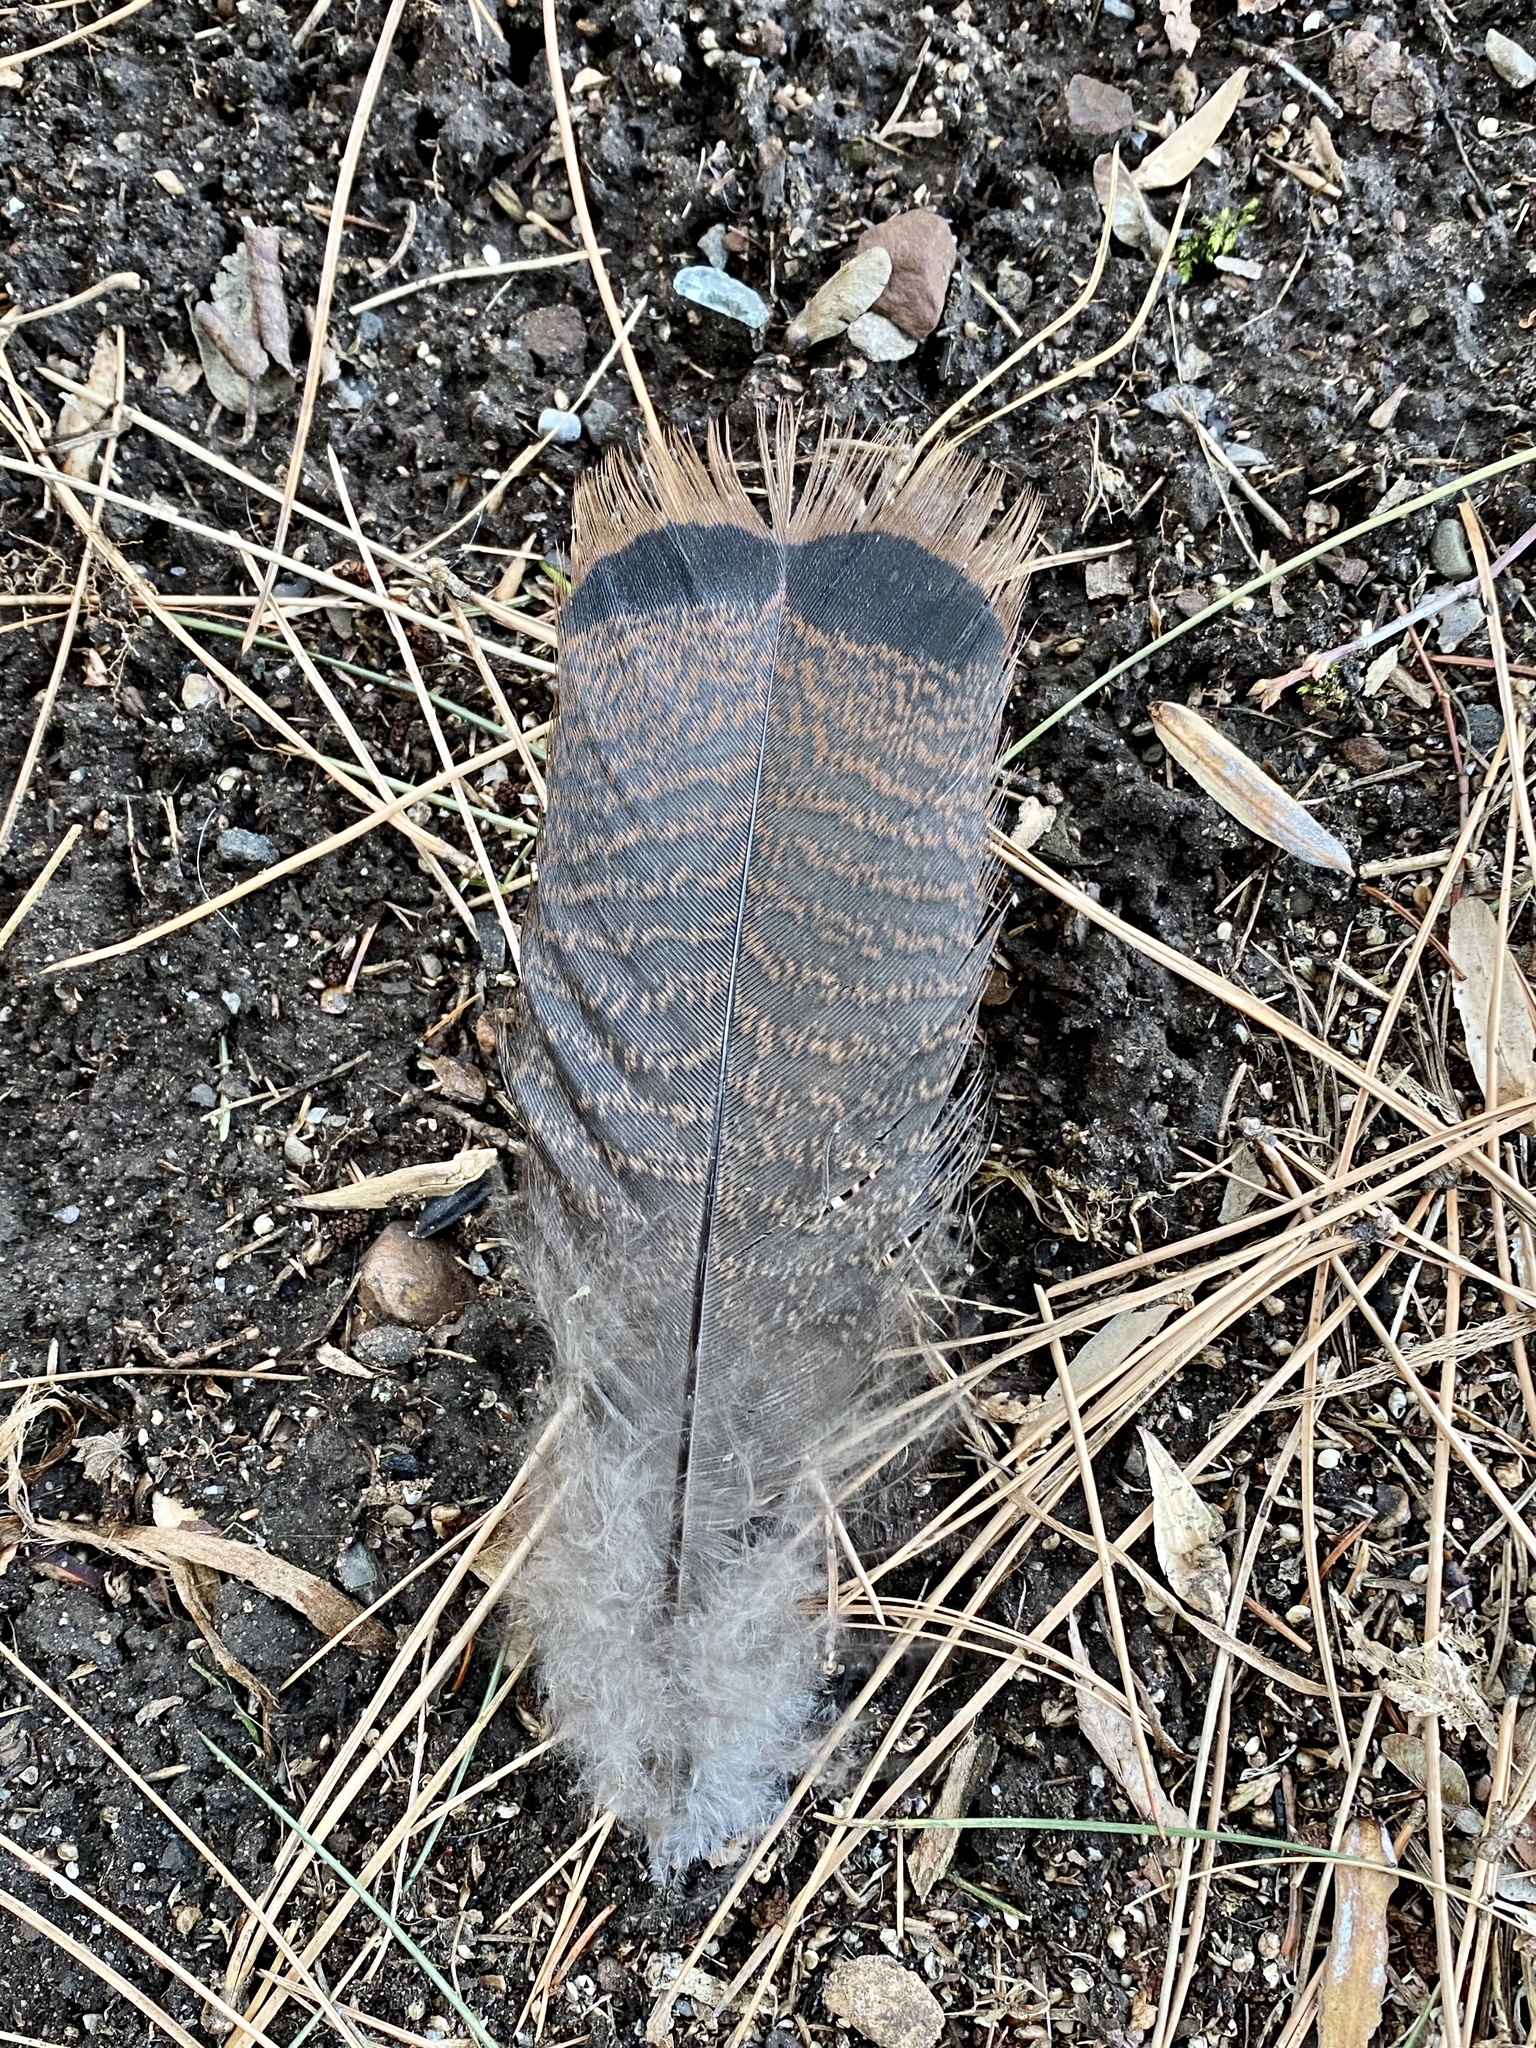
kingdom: Animalia
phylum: Chordata
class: Aves
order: Galliformes
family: Phasianidae
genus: Meleagris
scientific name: Meleagris gallopavo
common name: Wild turkey
